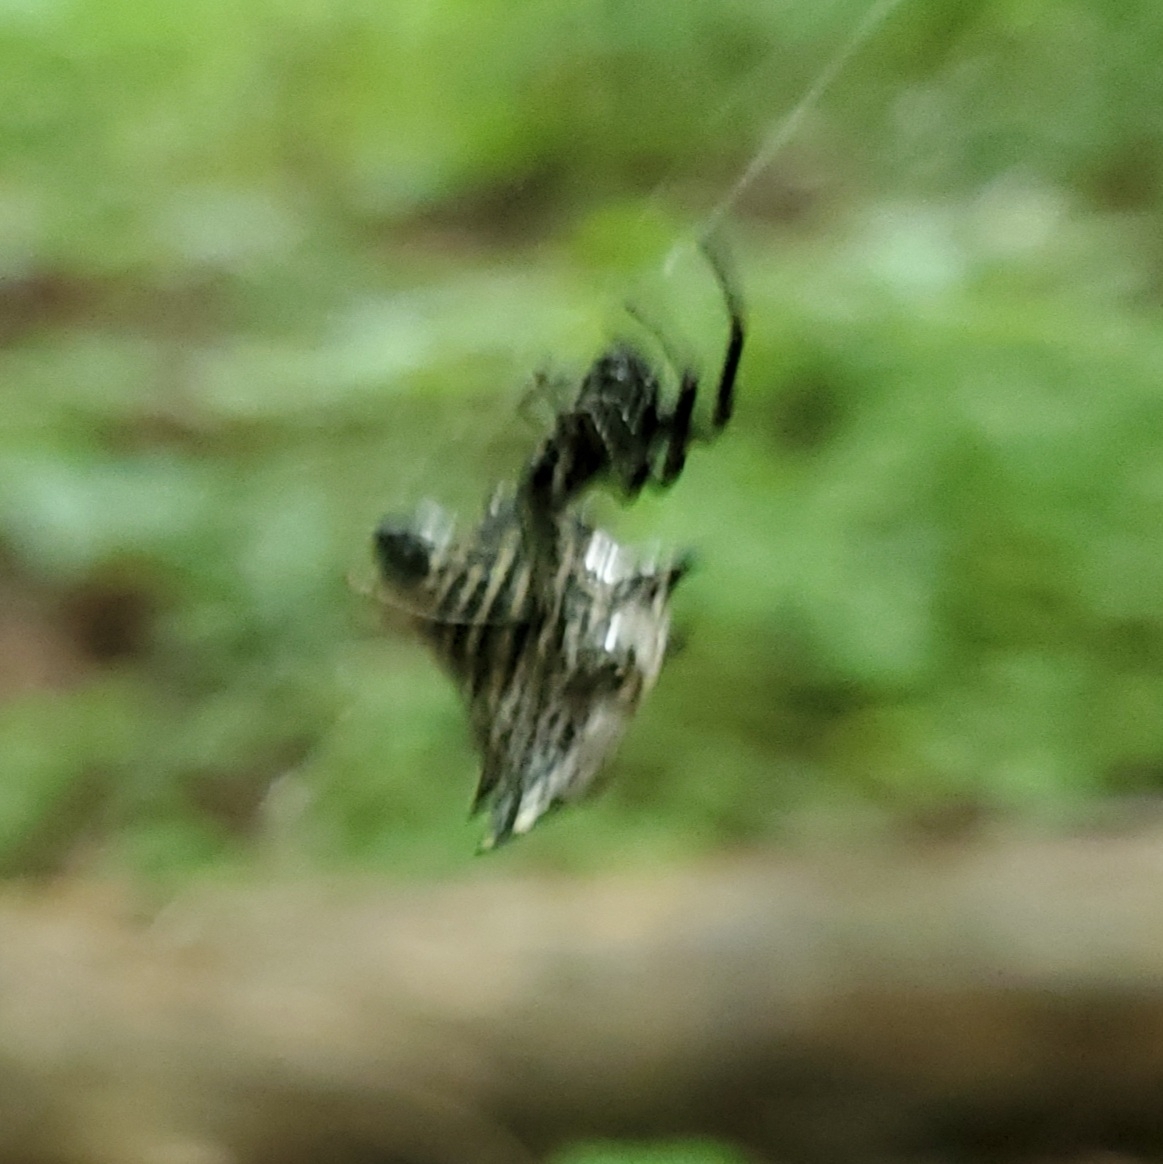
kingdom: Animalia
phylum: Arthropoda
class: Arachnida
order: Araneae
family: Araneidae
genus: Micrathena
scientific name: Micrathena gracilis
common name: Orb weavers
